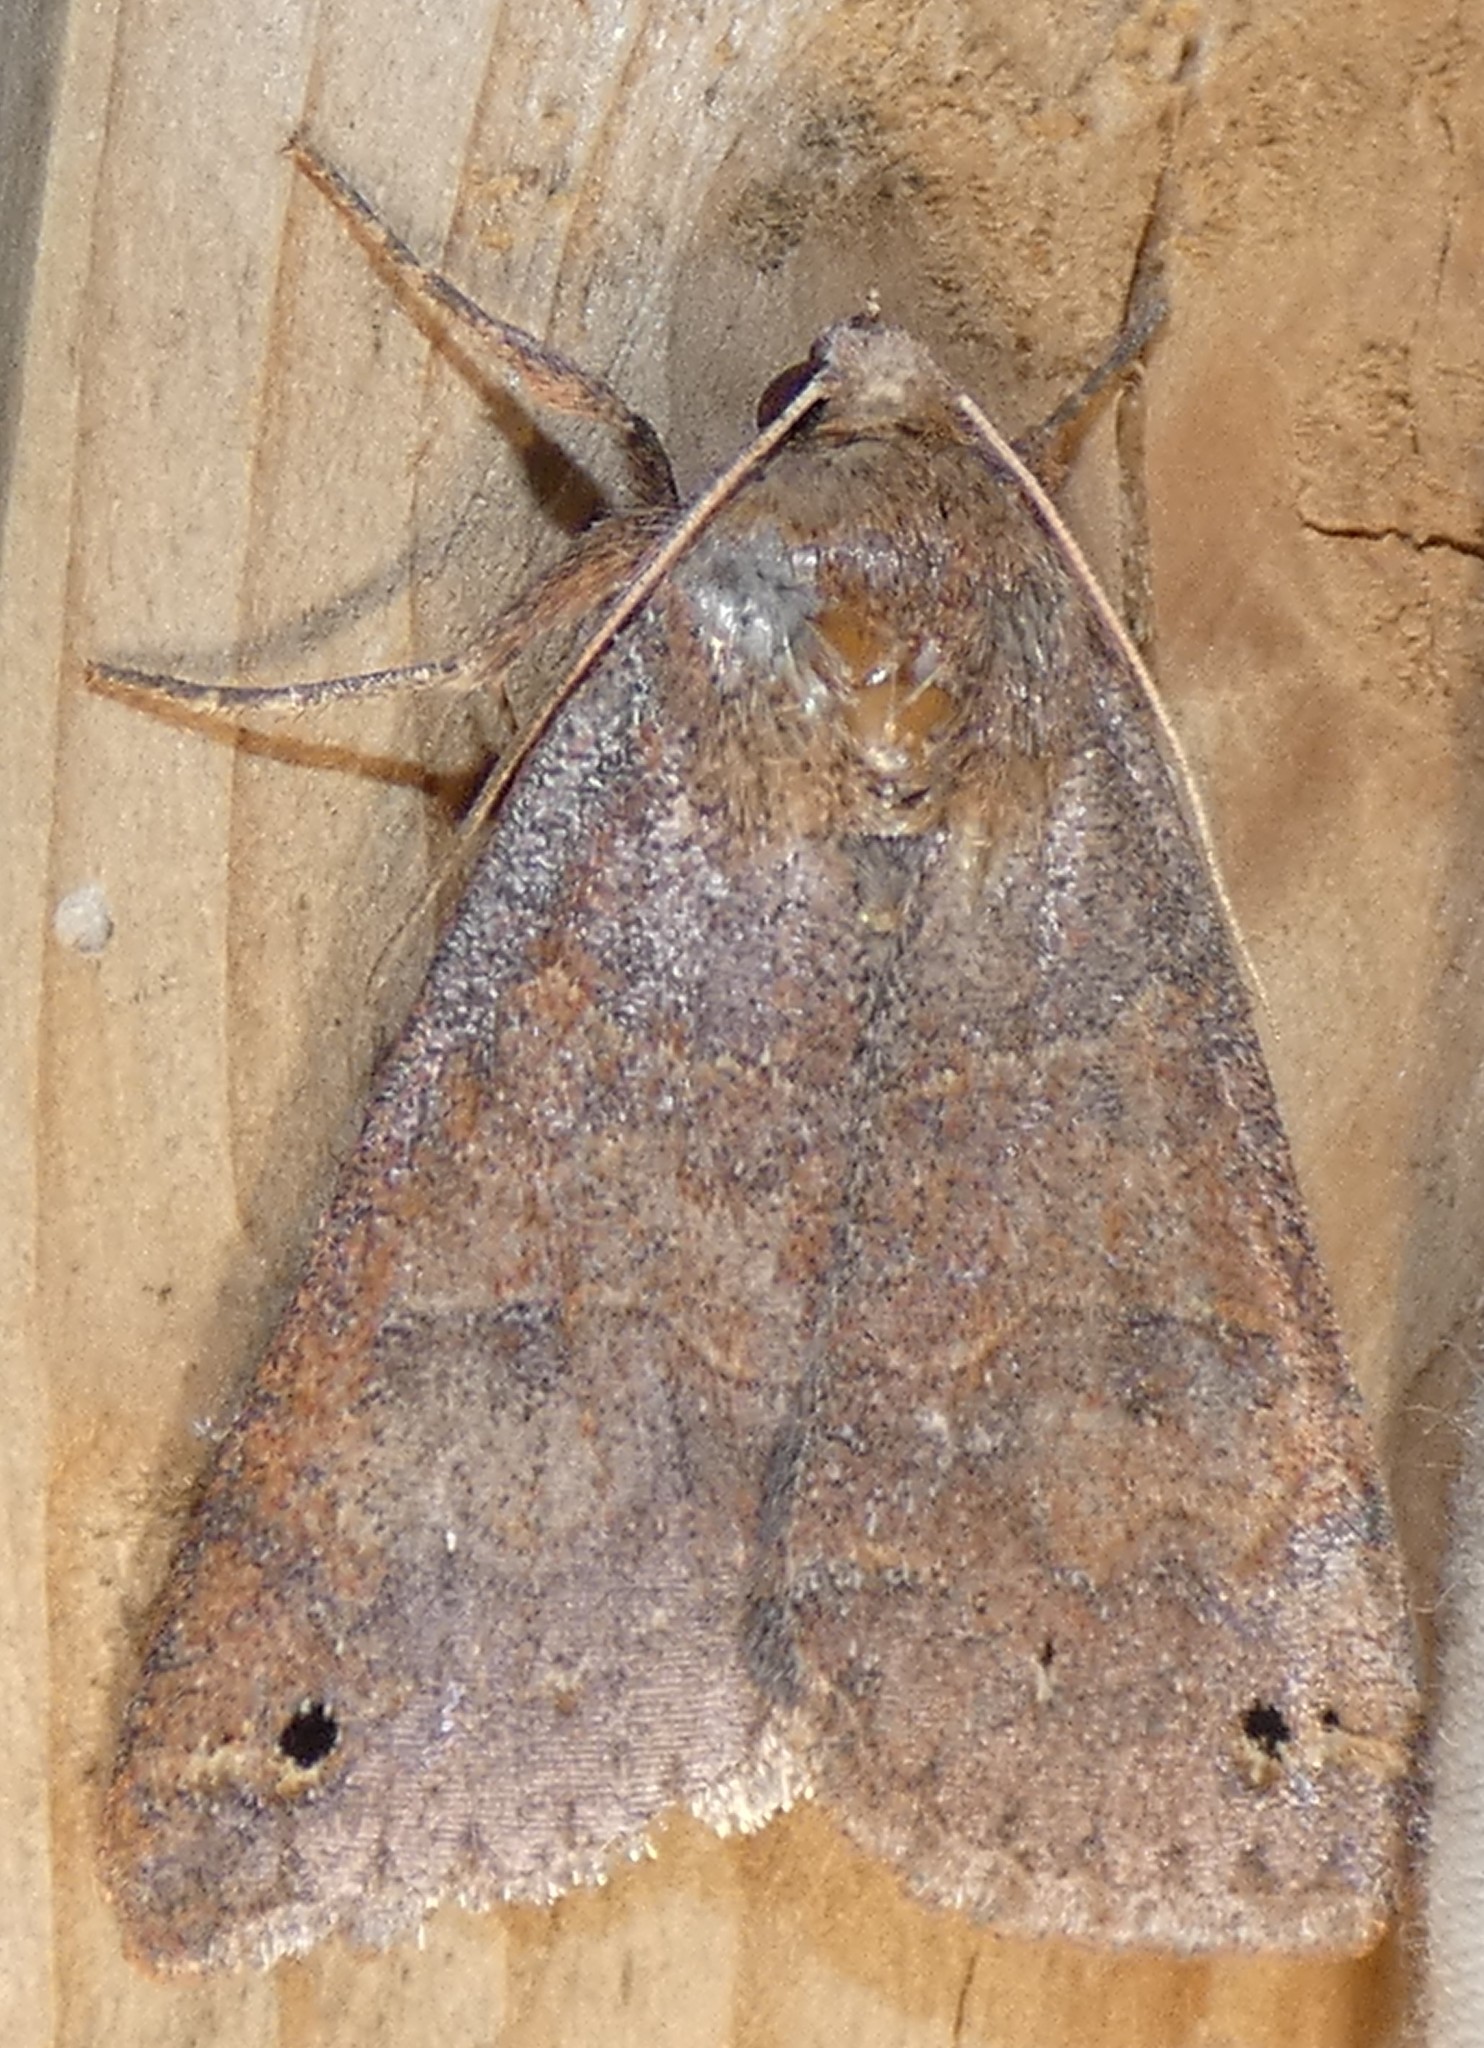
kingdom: Animalia
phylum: Arthropoda
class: Insecta
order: Lepidoptera
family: Erebidae
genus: Cissusa
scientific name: Cissusa spadix
